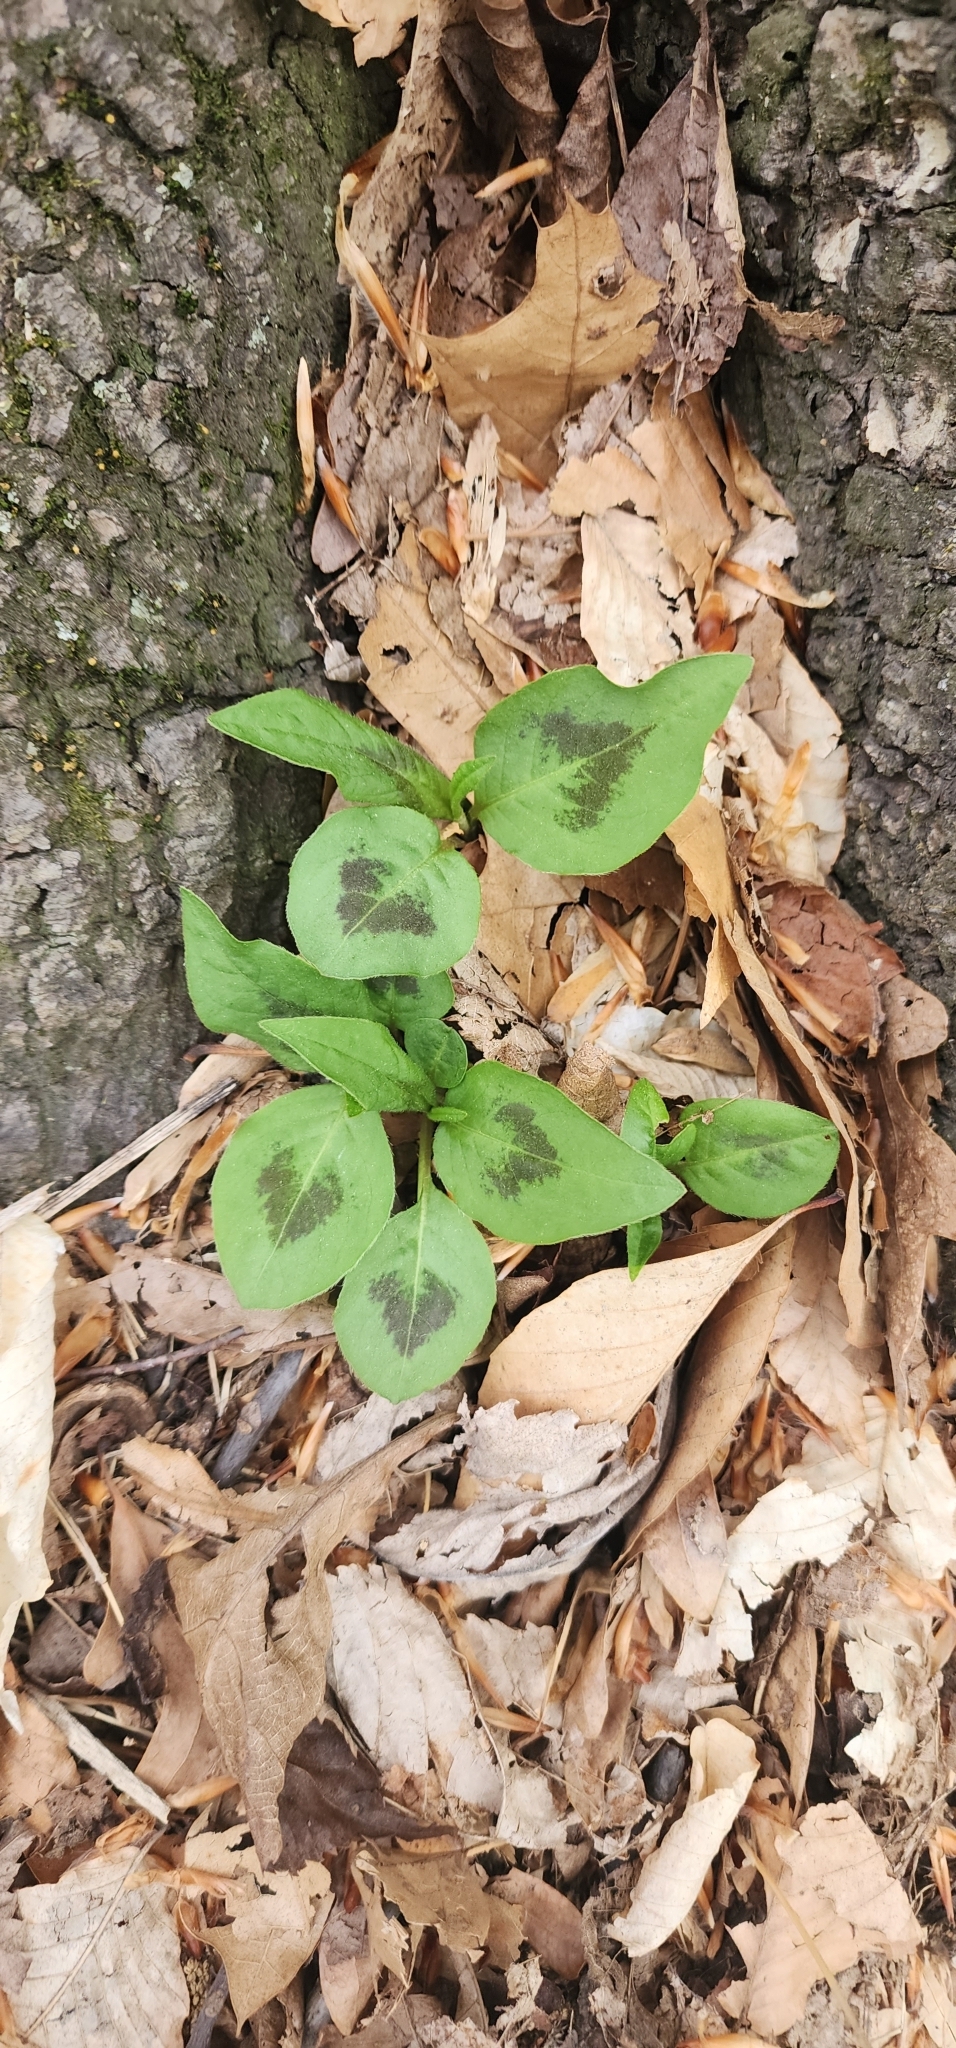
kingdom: Plantae
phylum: Tracheophyta
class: Magnoliopsida
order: Caryophyllales
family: Polygonaceae
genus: Persicaria
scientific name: Persicaria virginiana
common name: Jumpseed
